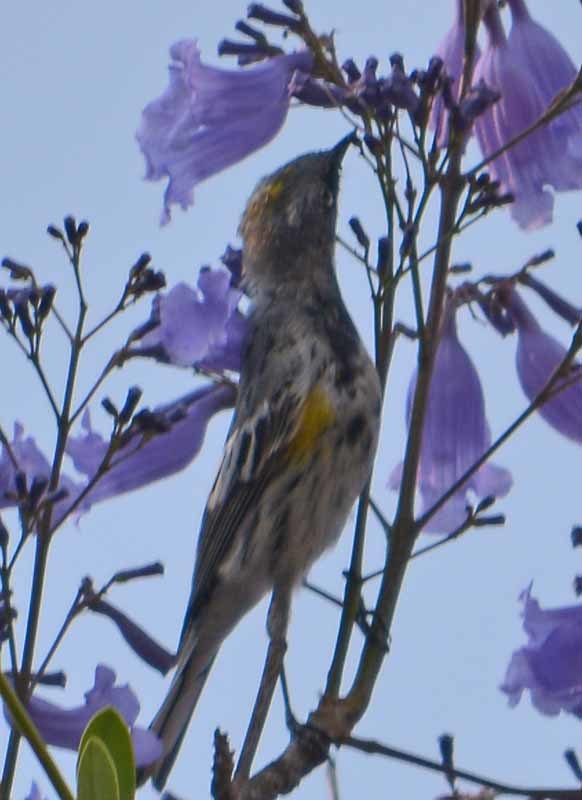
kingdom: Animalia
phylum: Chordata
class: Aves
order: Passeriformes
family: Parulidae
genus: Setophaga
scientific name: Setophaga coronata
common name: Myrtle warbler
